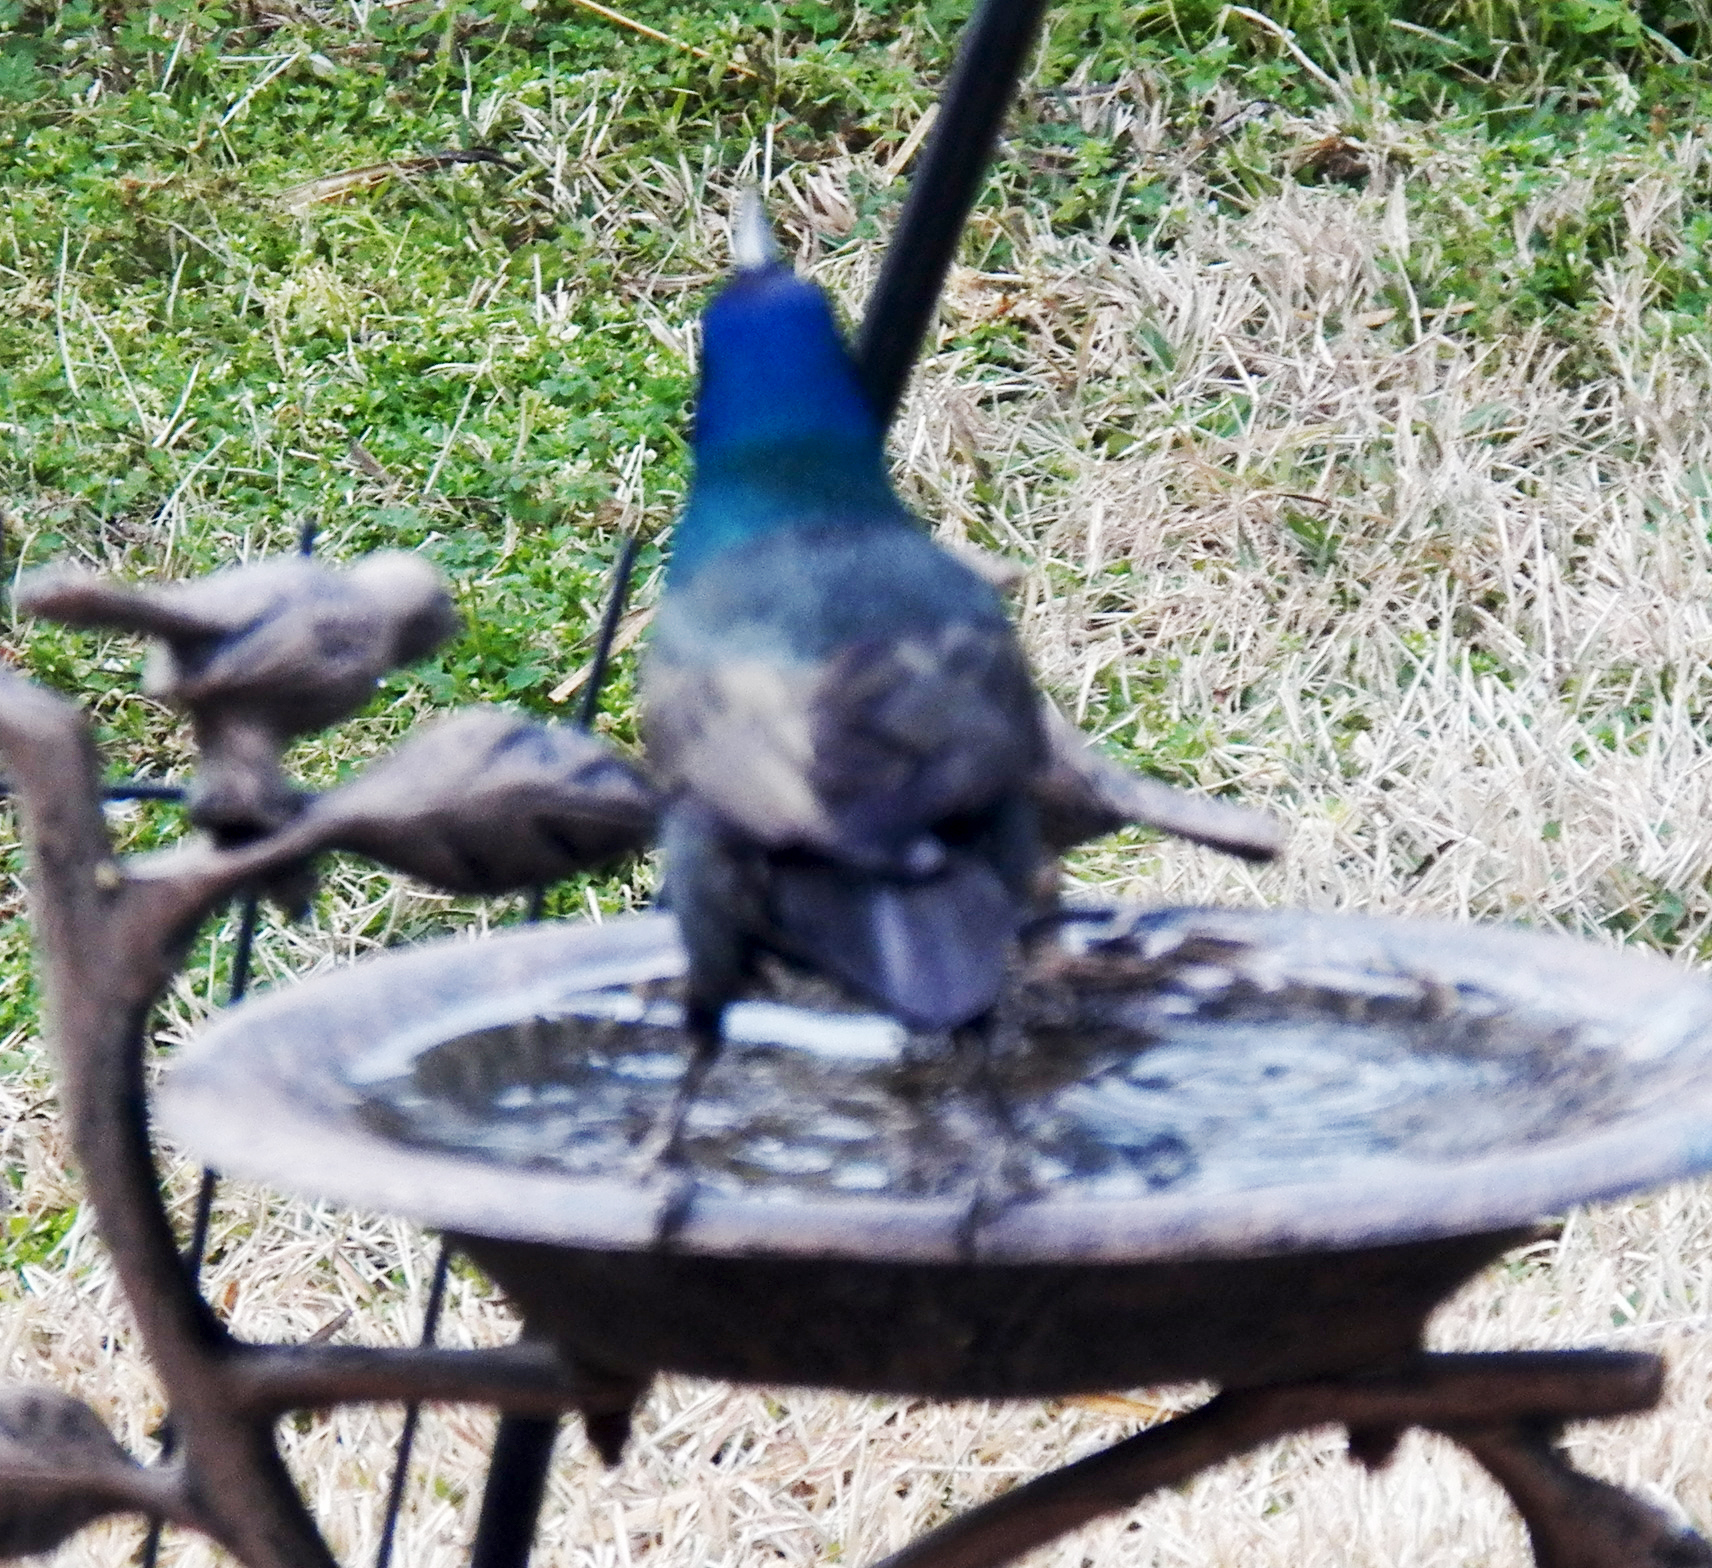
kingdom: Animalia
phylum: Chordata
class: Aves
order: Passeriformes
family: Icteridae
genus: Quiscalus
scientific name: Quiscalus quiscula
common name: Common grackle
